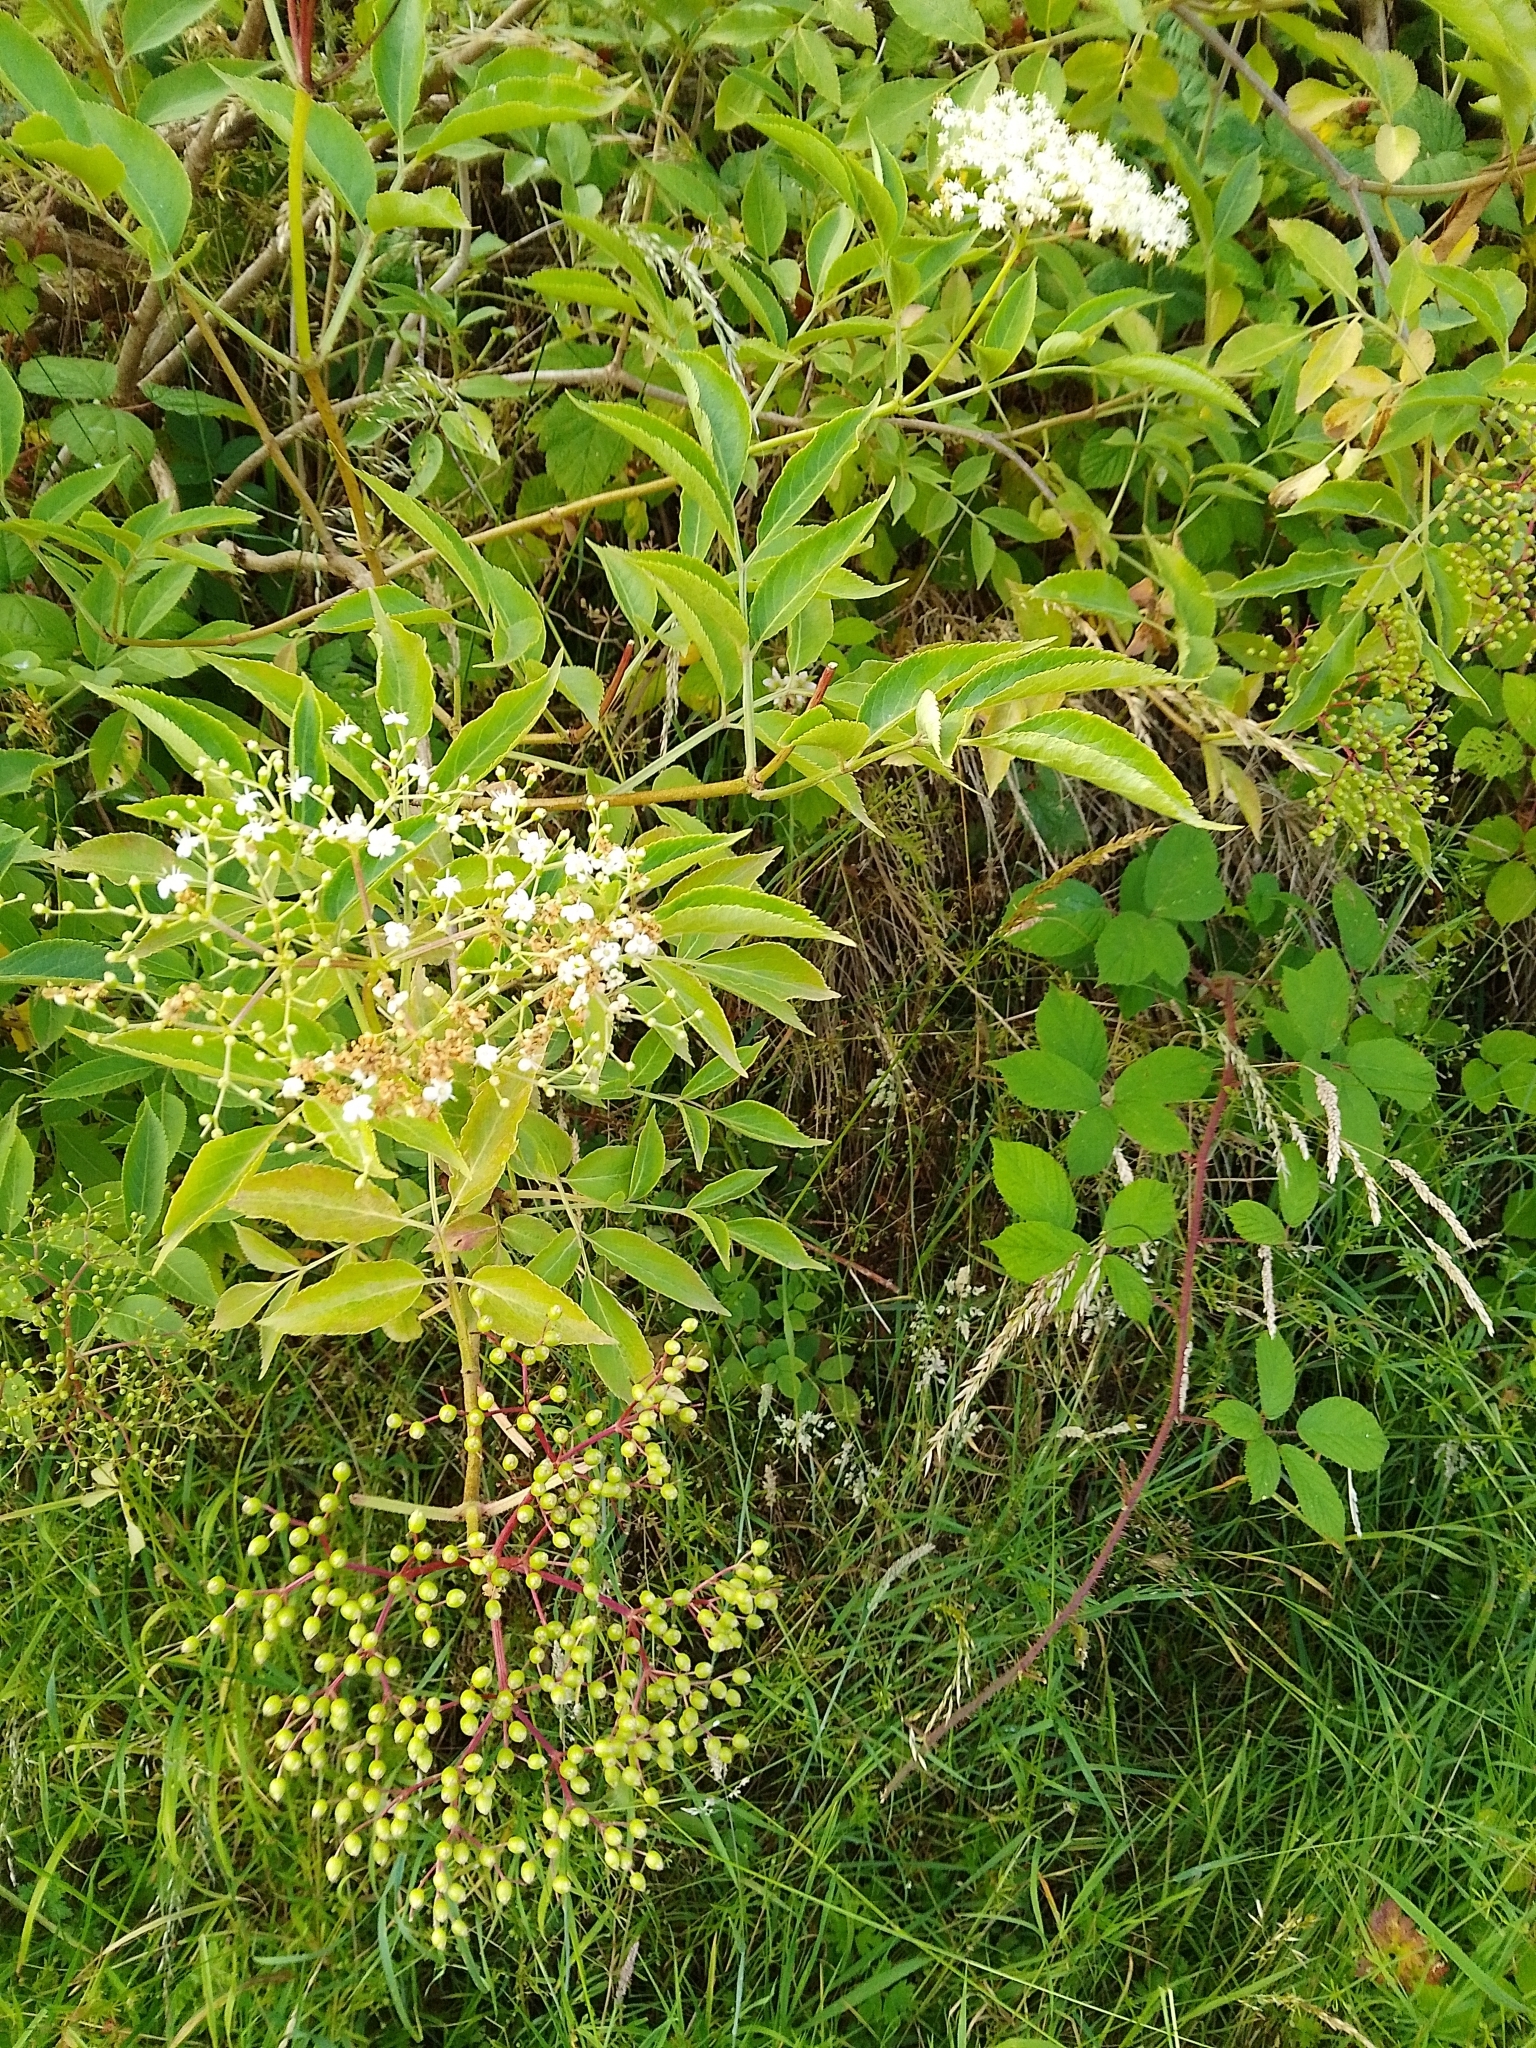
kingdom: Plantae
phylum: Tracheophyta
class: Magnoliopsida
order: Dipsacales
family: Viburnaceae
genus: Sambucus
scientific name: Sambucus nigra
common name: Elder
